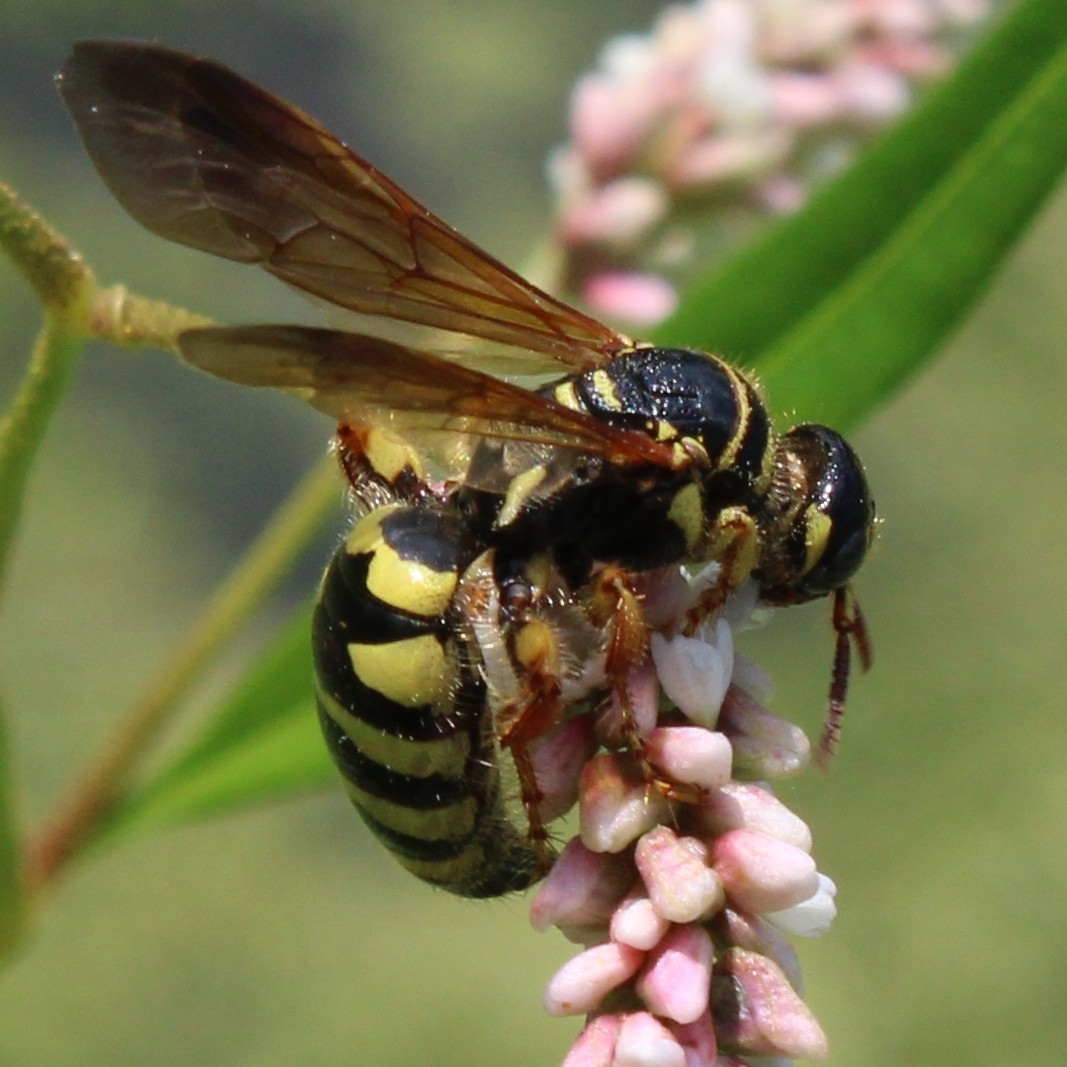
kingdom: Animalia
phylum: Arthropoda
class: Insecta
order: Hymenoptera
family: Tiphiidae
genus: Myzinum
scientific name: Myzinum quinquecinctum
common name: Five-banded thynnid wasp
